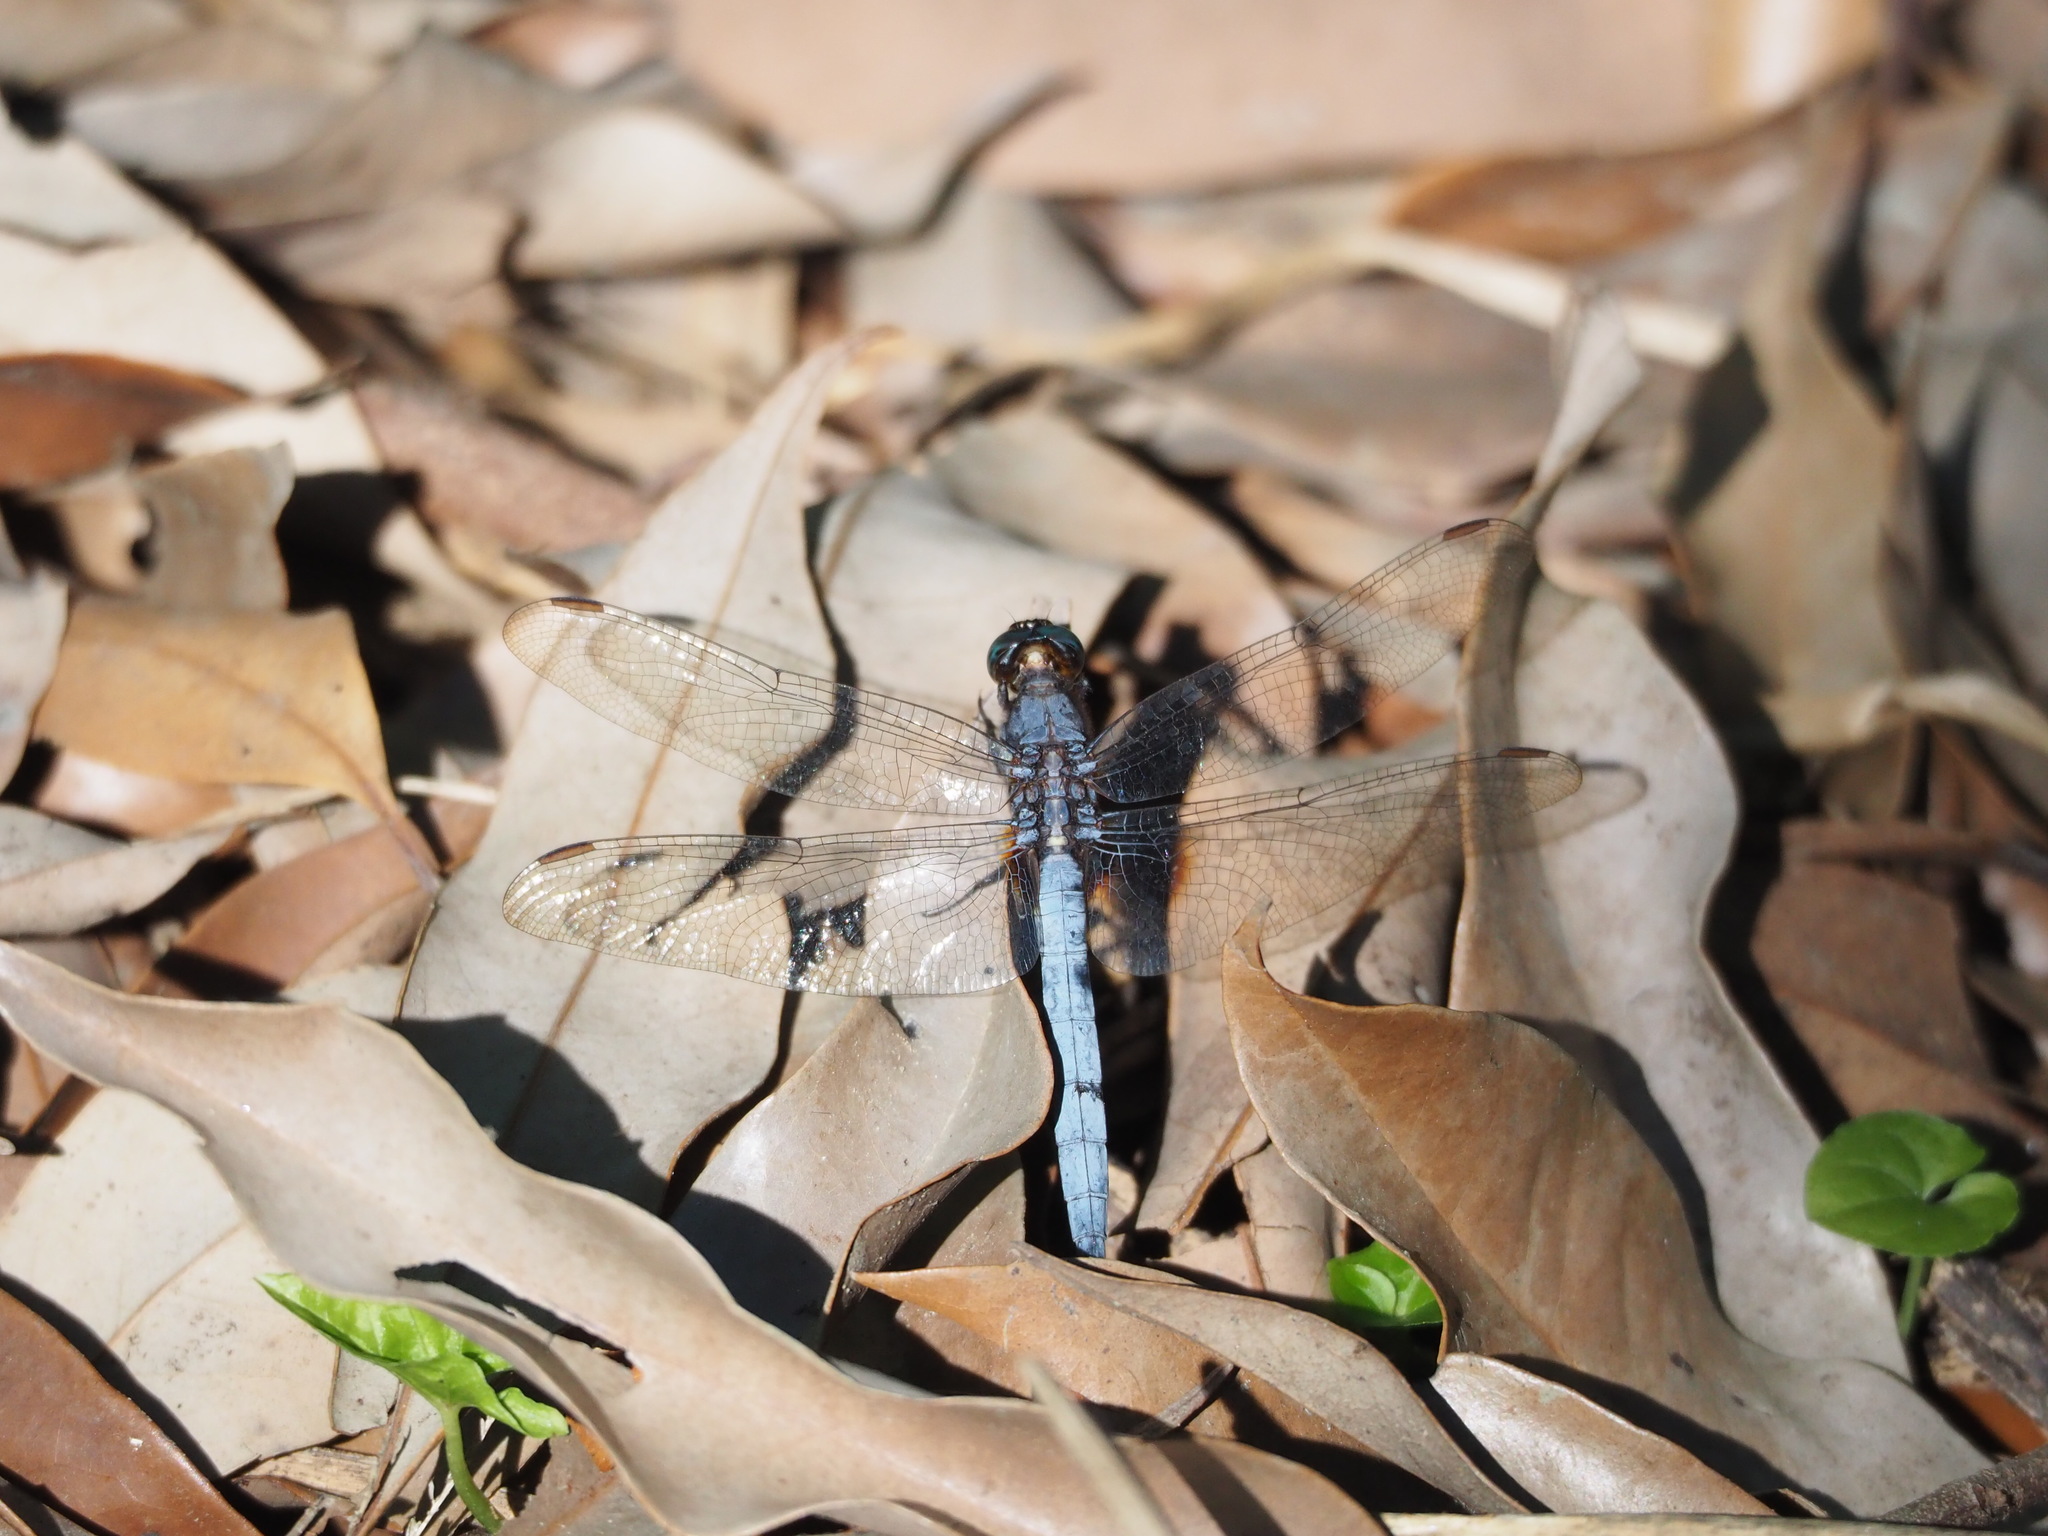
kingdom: Animalia
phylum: Arthropoda
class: Insecta
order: Odonata
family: Libellulidae
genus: Orthetrum
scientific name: Orthetrum glaucum
